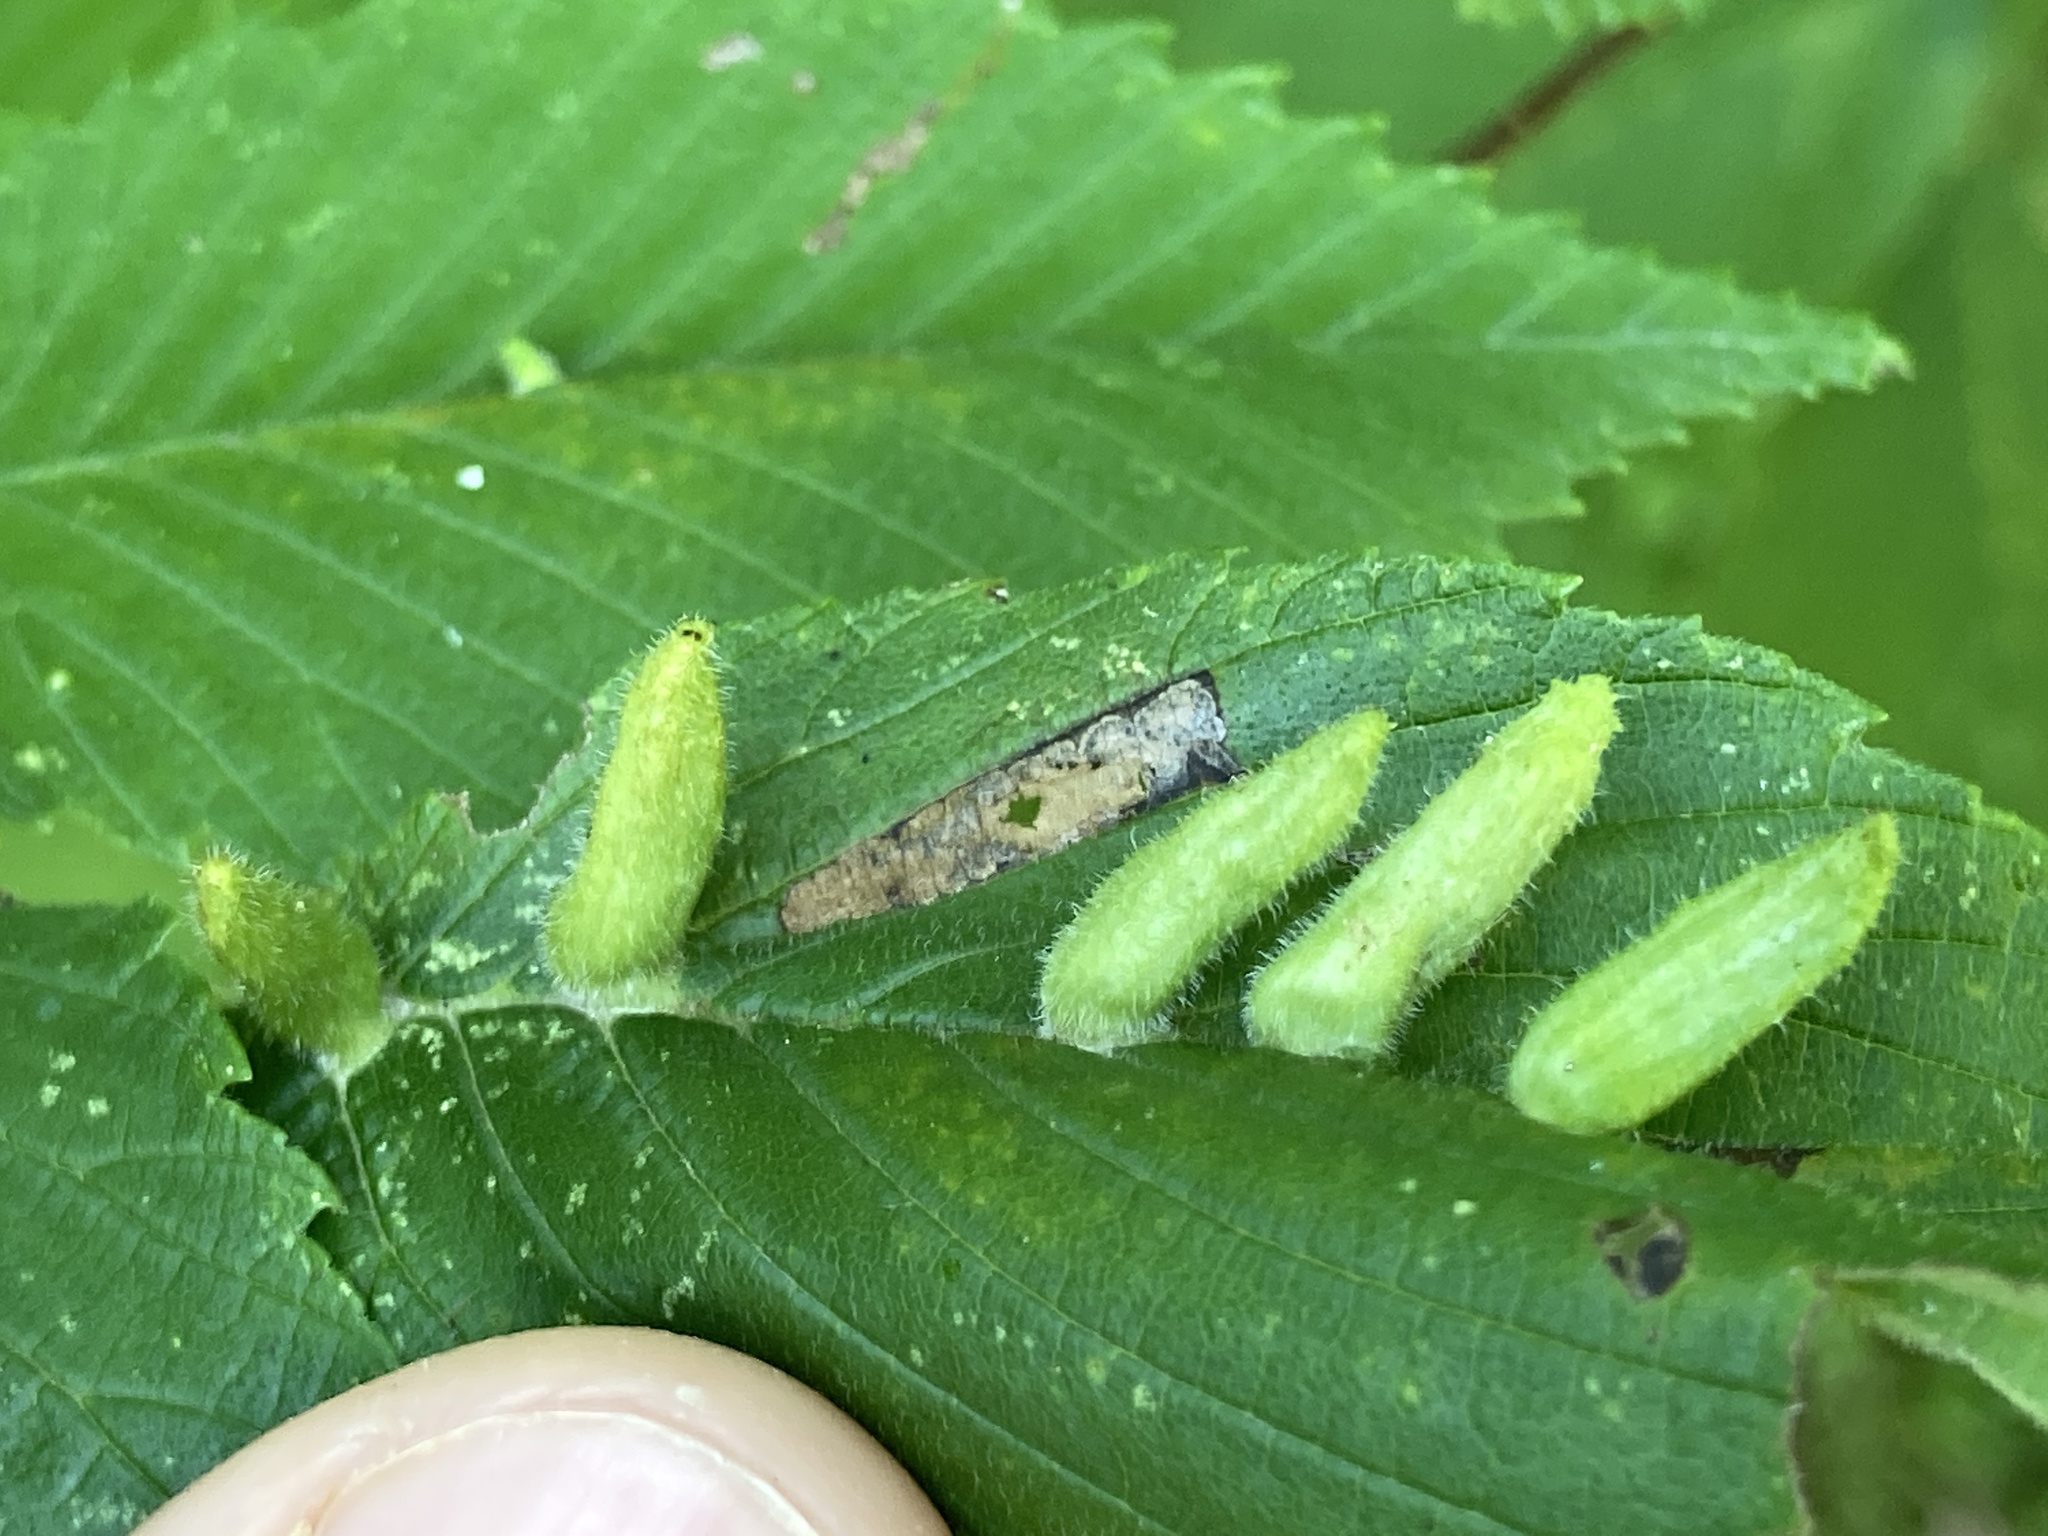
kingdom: Animalia
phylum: Arthropoda
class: Arachnida
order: Trombidiformes
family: Eriophyidae
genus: Aceria
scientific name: Aceria
